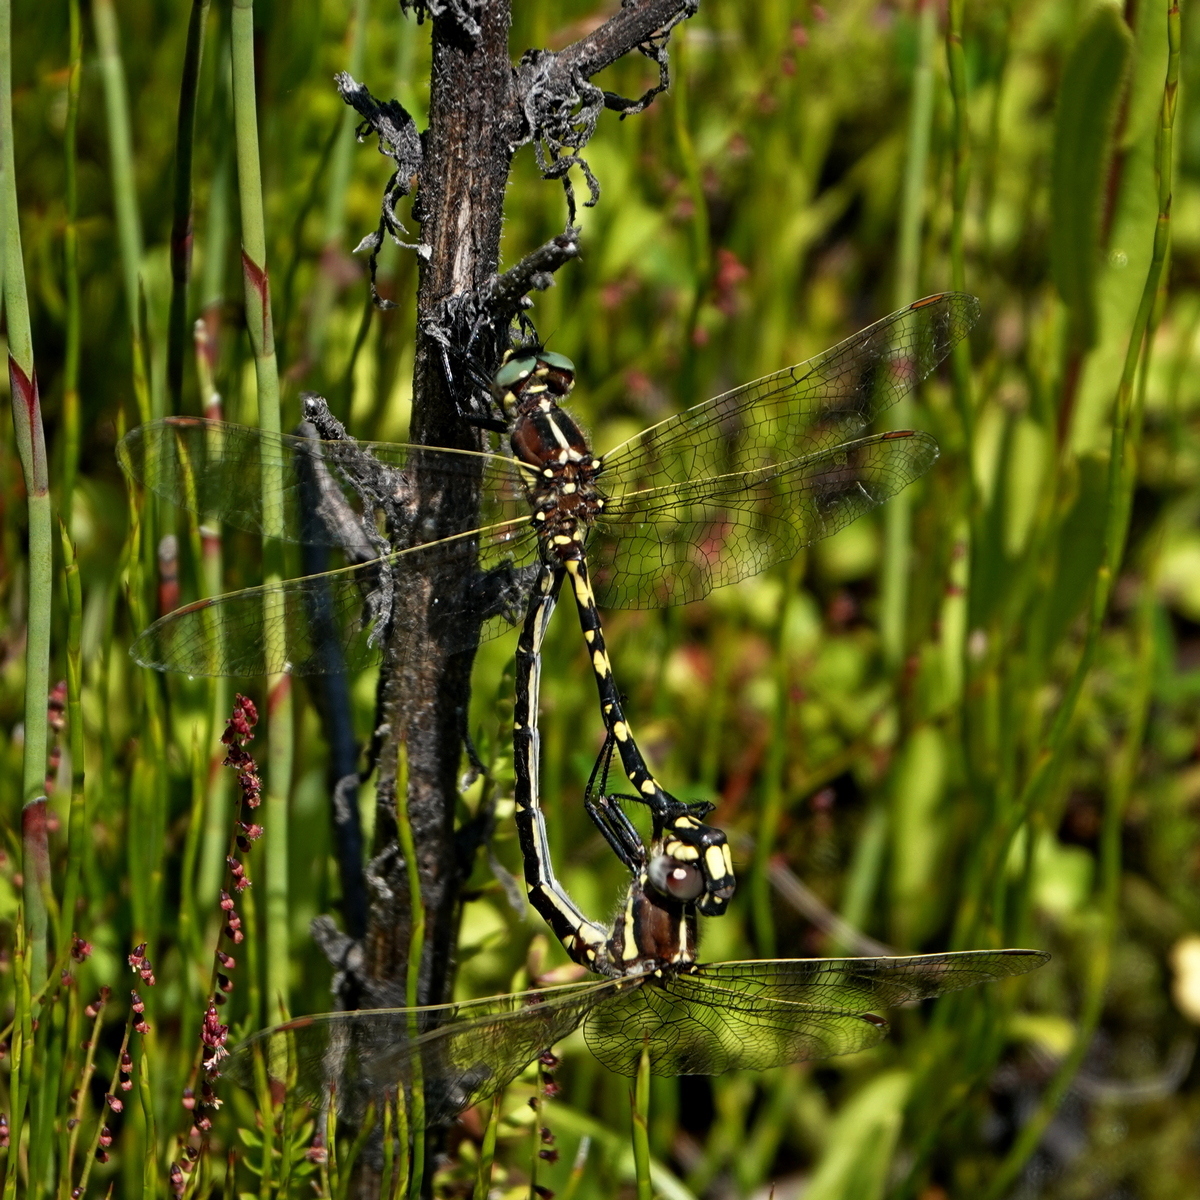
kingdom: Animalia
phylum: Arthropoda
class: Insecta
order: Odonata
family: Synthemistidae
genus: Synthemis
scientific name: Synthemis eustalacta
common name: Swamp tigertail
